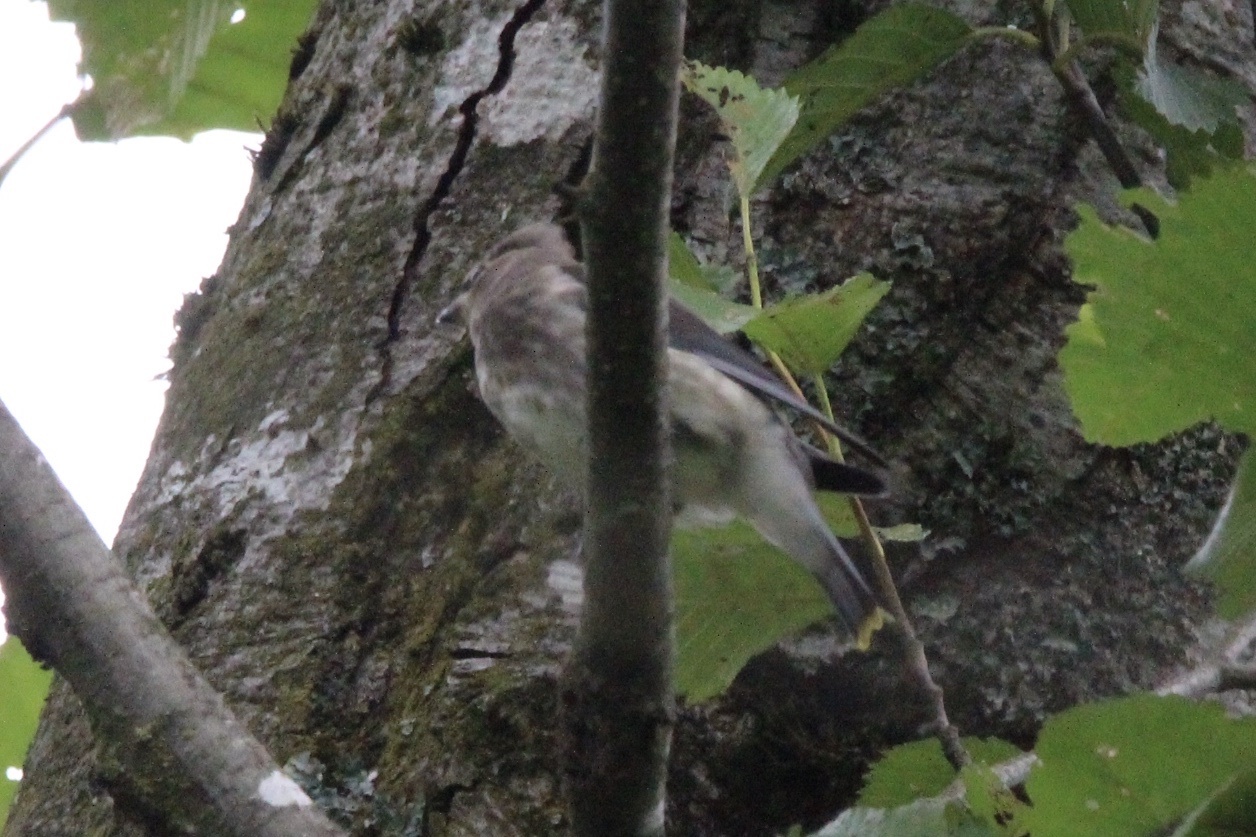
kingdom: Animalia
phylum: Chordata
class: Aves
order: Passeriformes
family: Bombycillidae
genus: Bombycilla
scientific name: Bombycilla cedrorum
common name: Cedar waxwing
